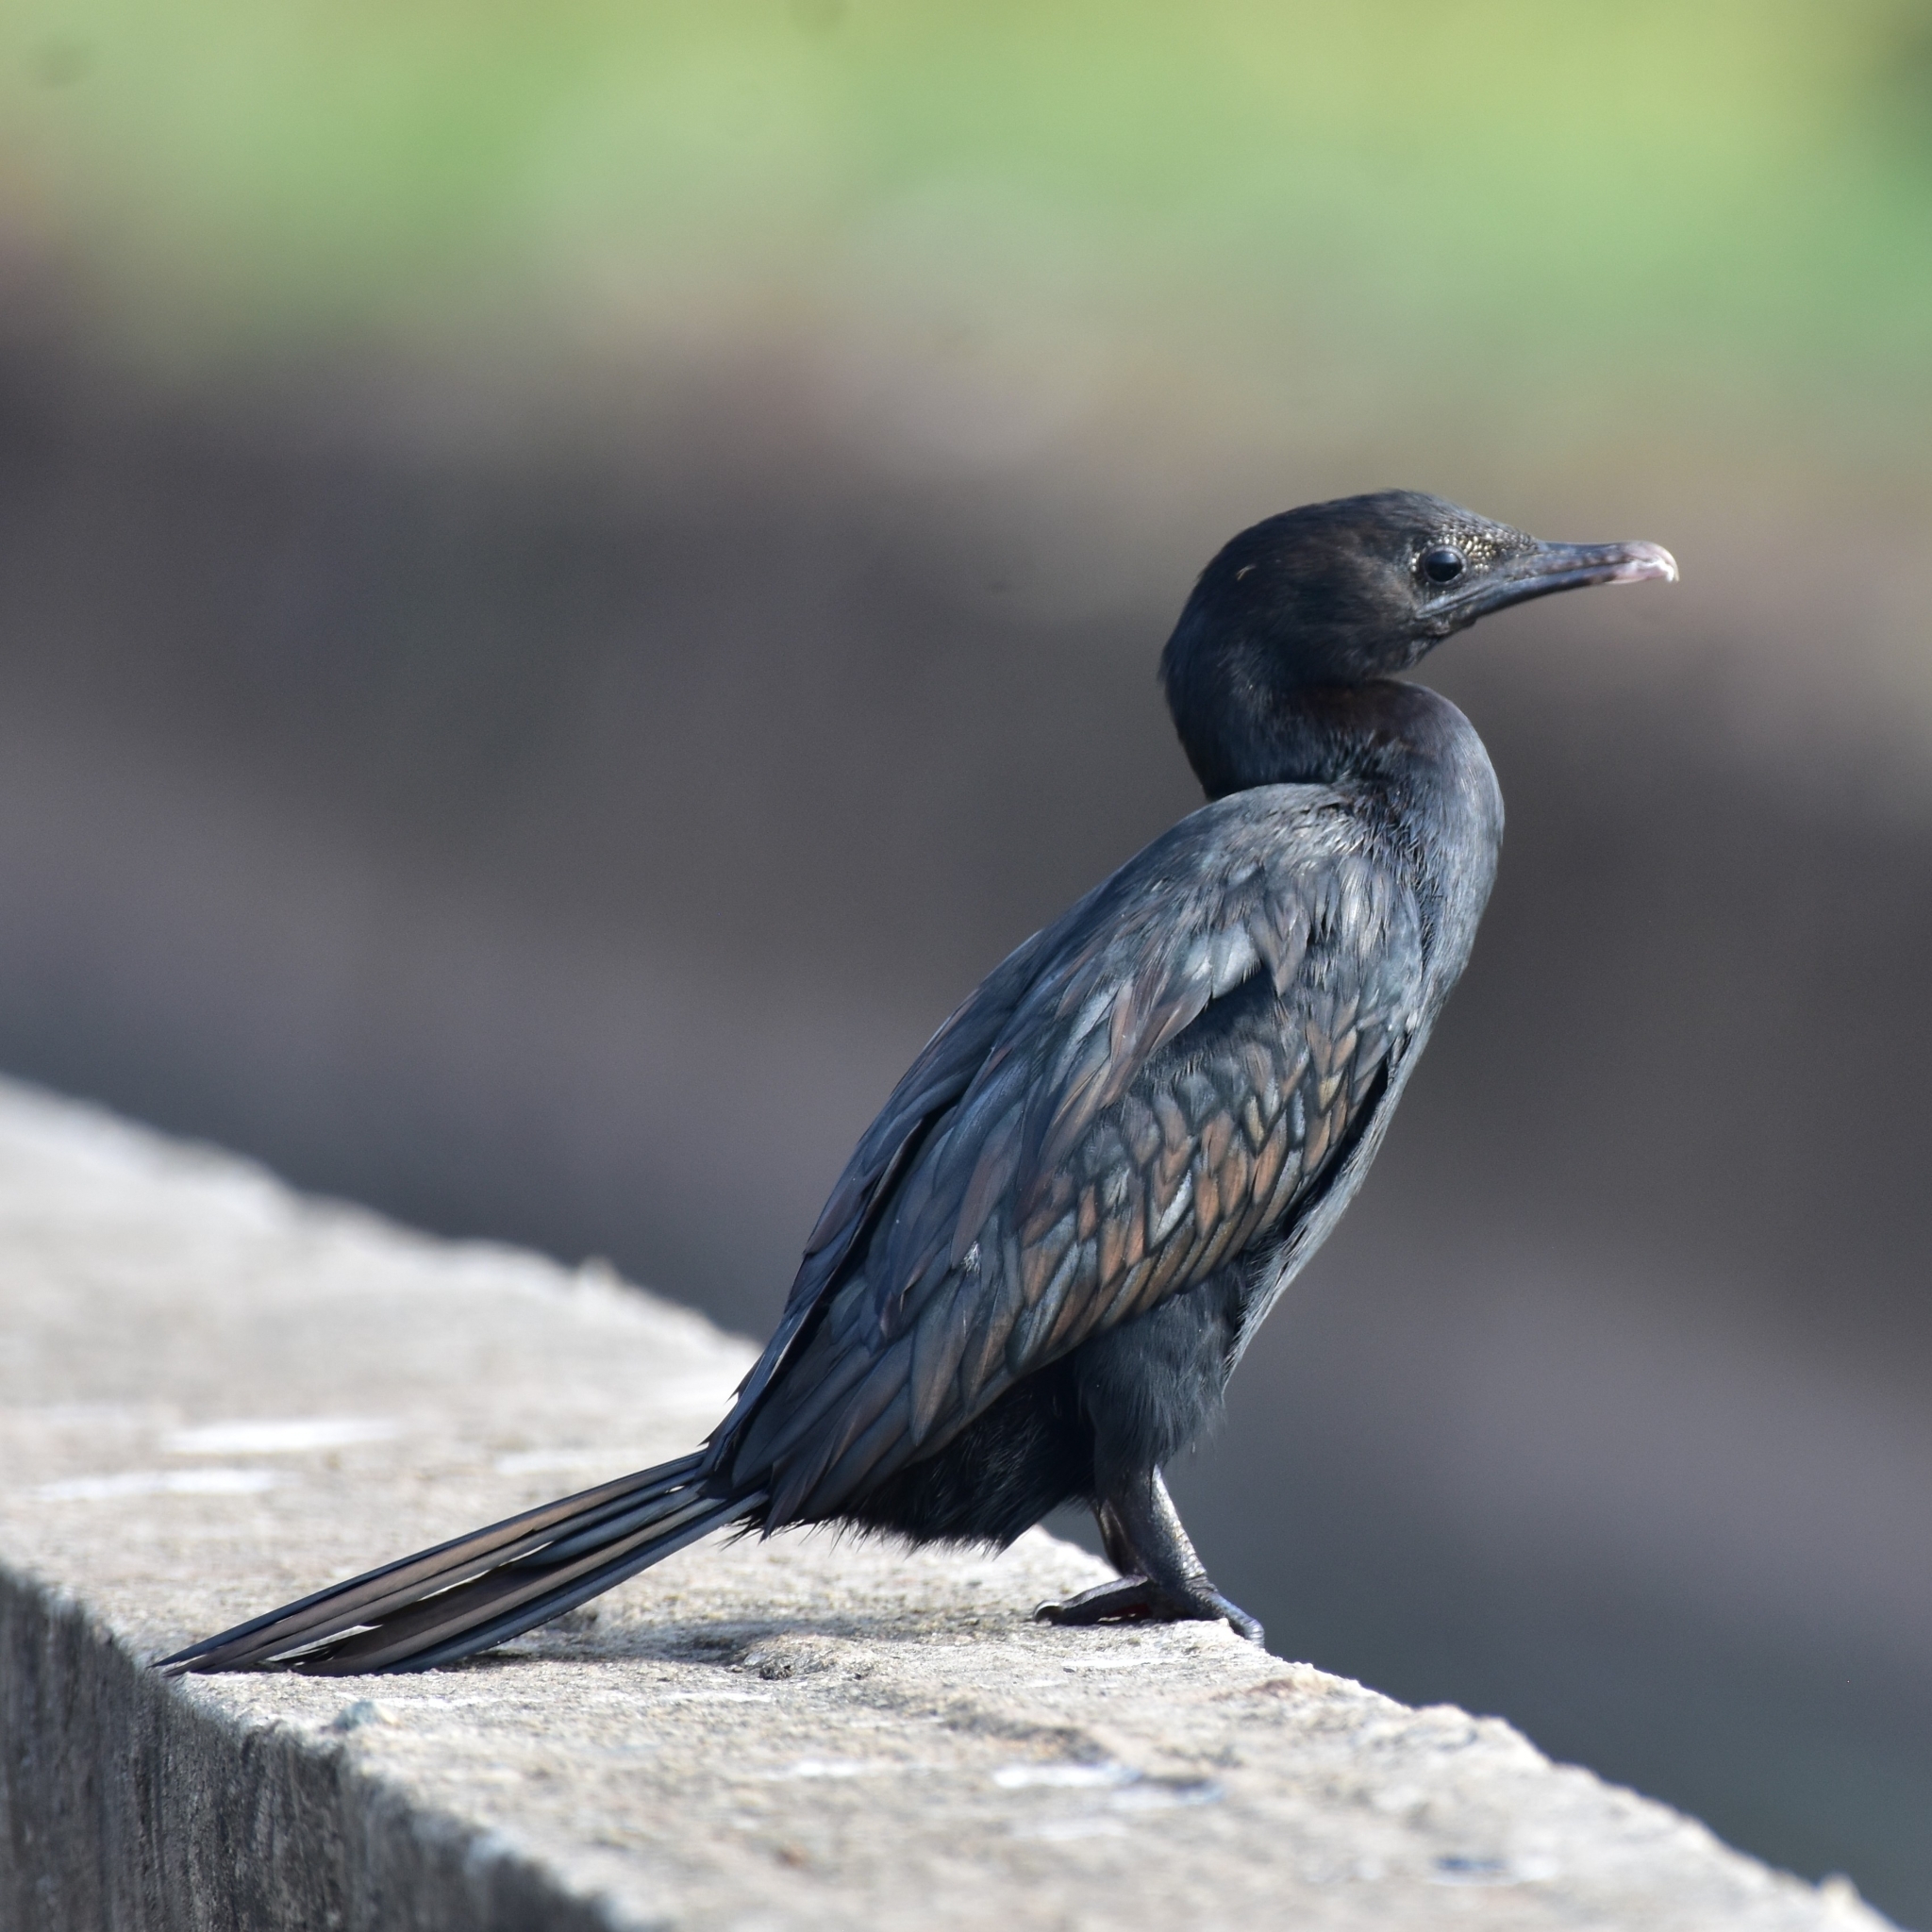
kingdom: Animalia
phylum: Chordata
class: Aves
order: Suliformes
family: Phalacrocoracidae
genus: Microcarbo
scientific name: Microcarbo niger
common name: Little cormorant
